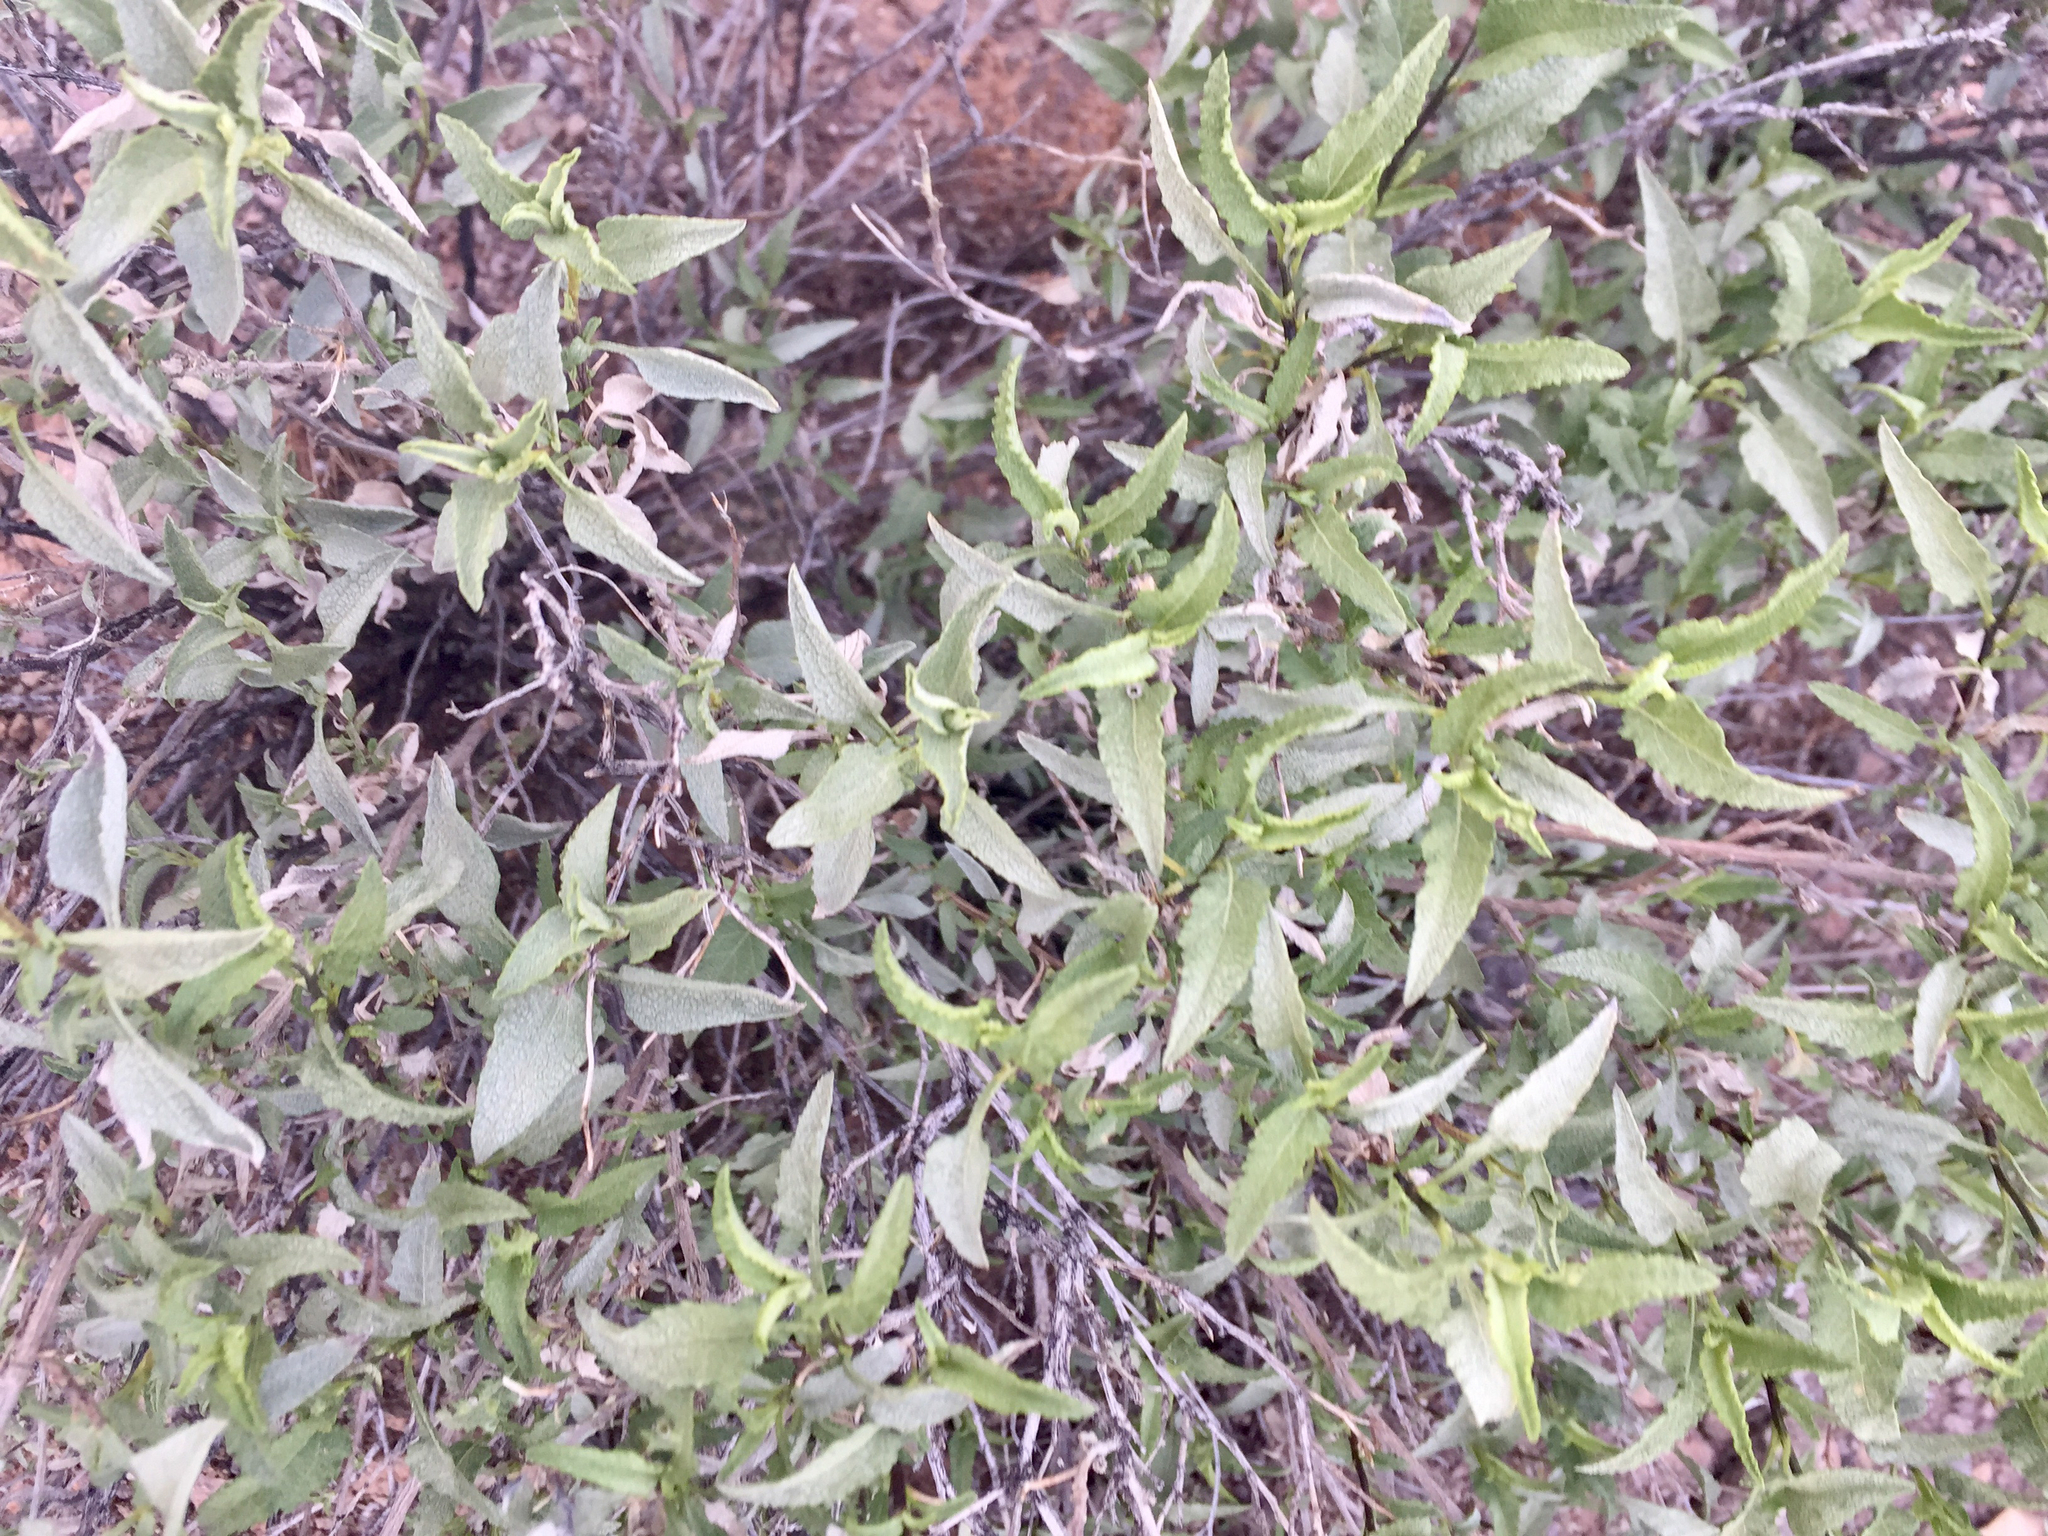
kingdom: Plantae
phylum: Tracheophyta
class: Magnoliopsida
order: Asterales
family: Asteraceae
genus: Ambrosia
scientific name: Ambrosia deltoidea
